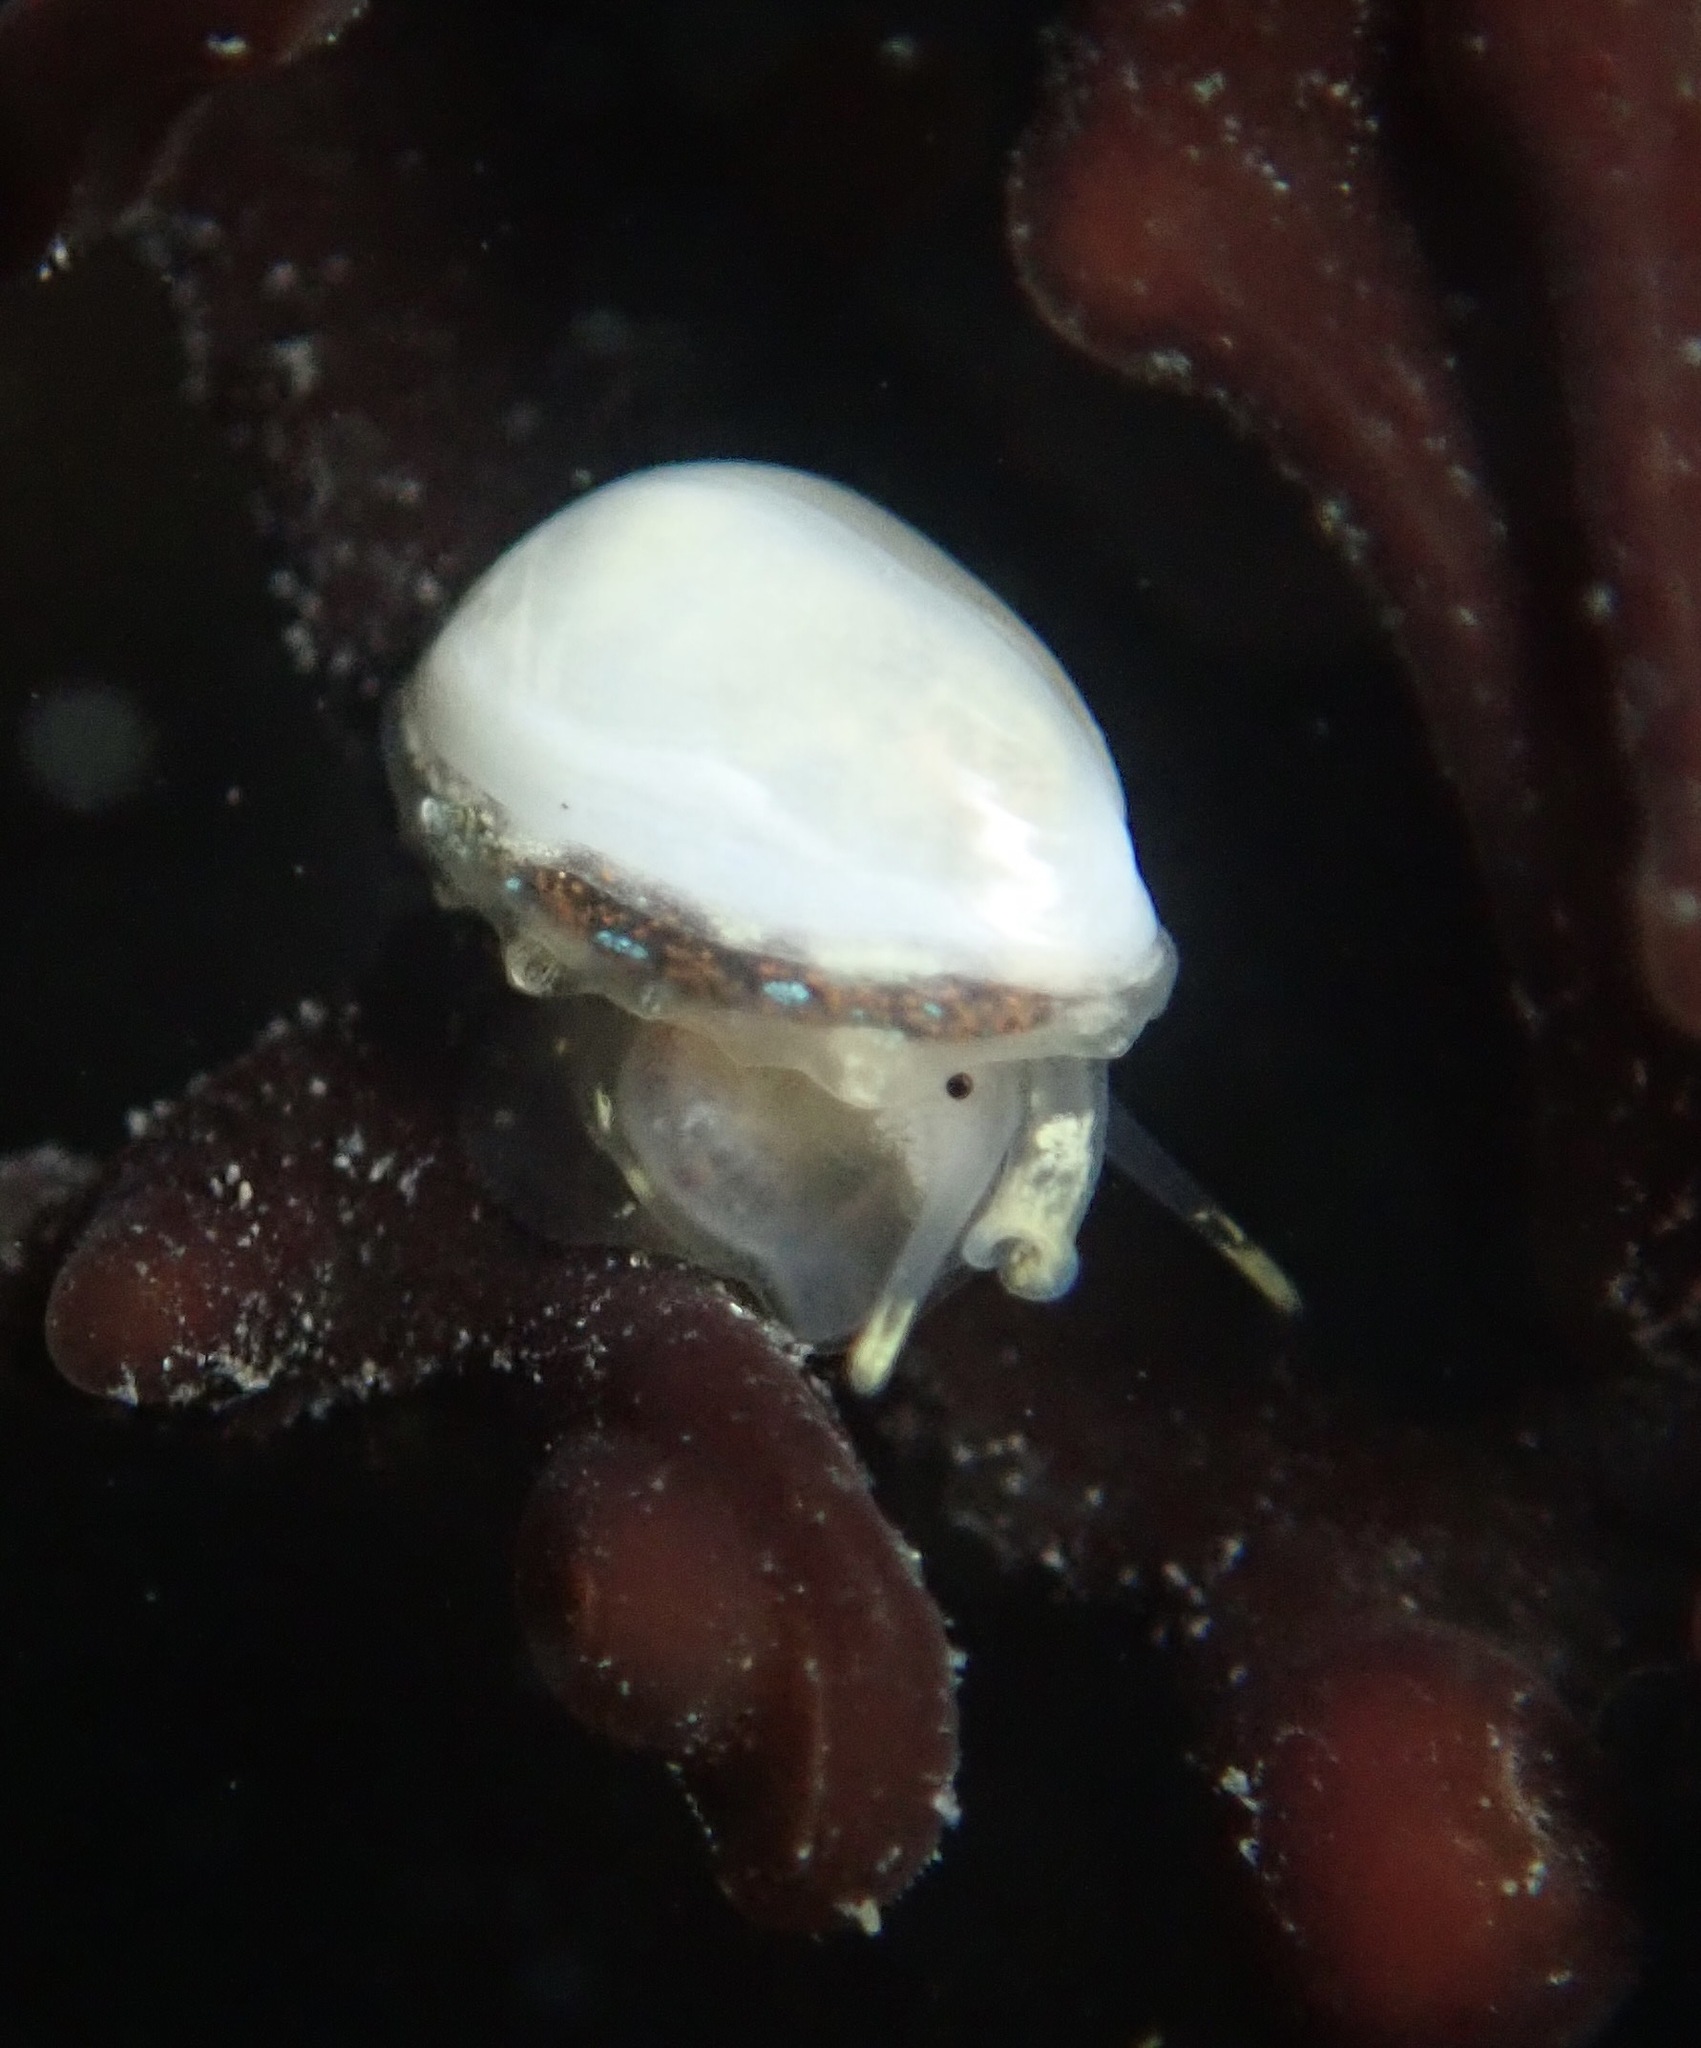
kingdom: Animalia
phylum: Mollusca
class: Gastropoda
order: Neogastropoda
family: Granulinidae
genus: Granulina
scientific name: Granulina margaritula
